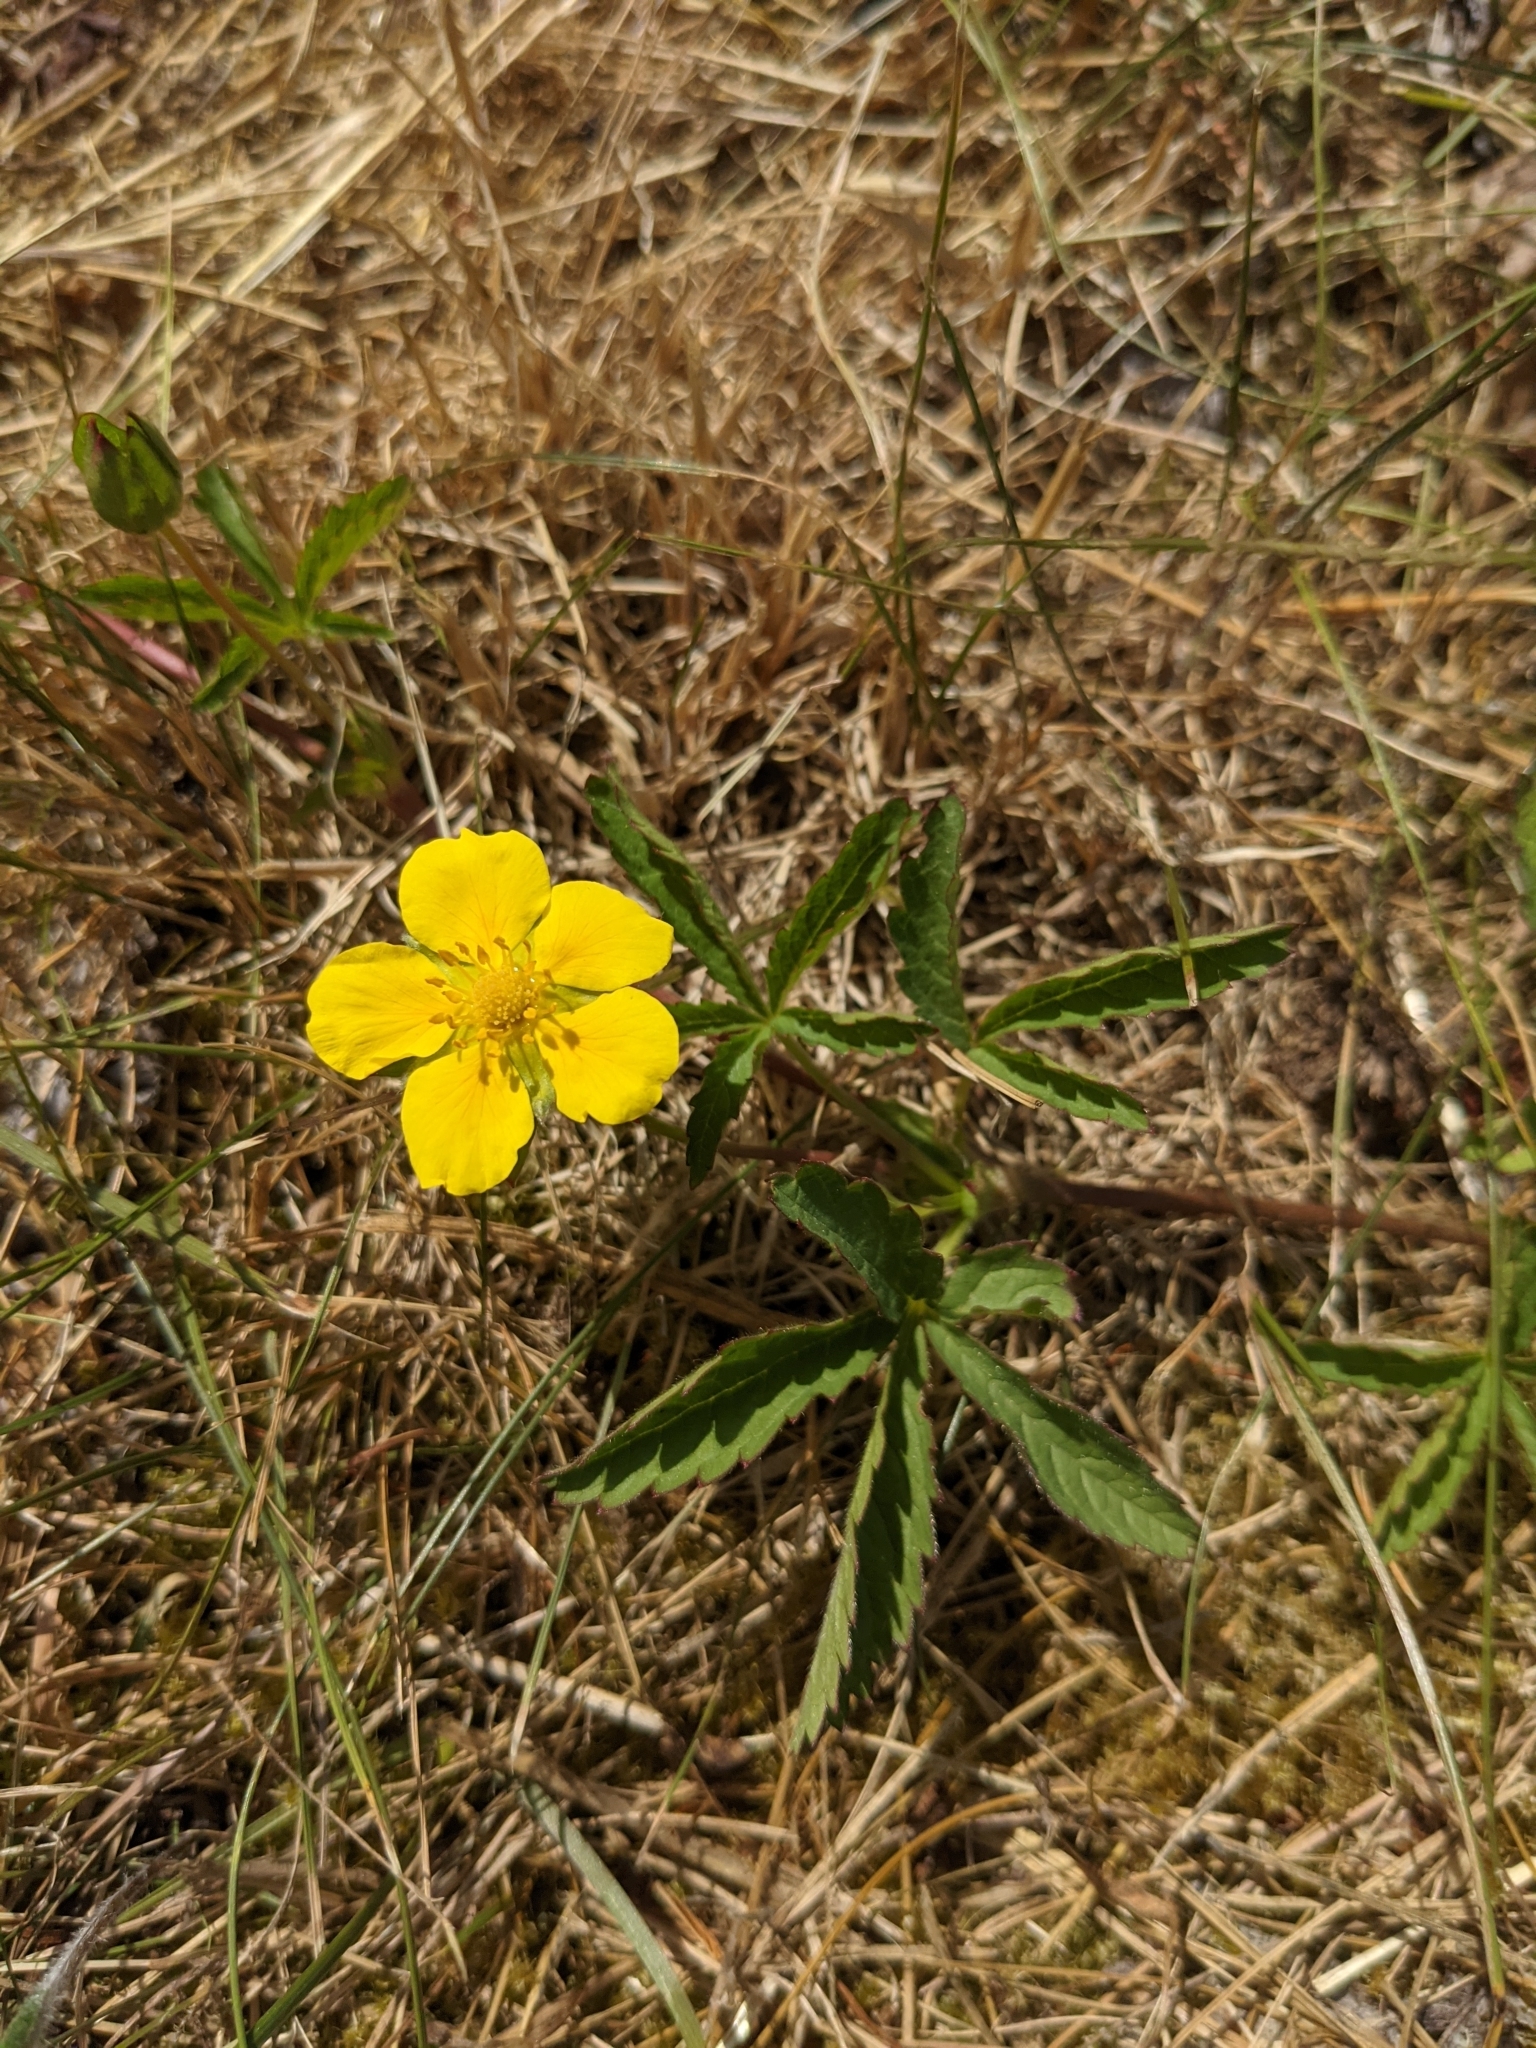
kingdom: Plantae
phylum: Tracheophyta
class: Magnoliopsida
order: Rosales
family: Rosaceae
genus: Potentilla
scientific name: Potentilla reptans
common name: Creeping cinquefoil
